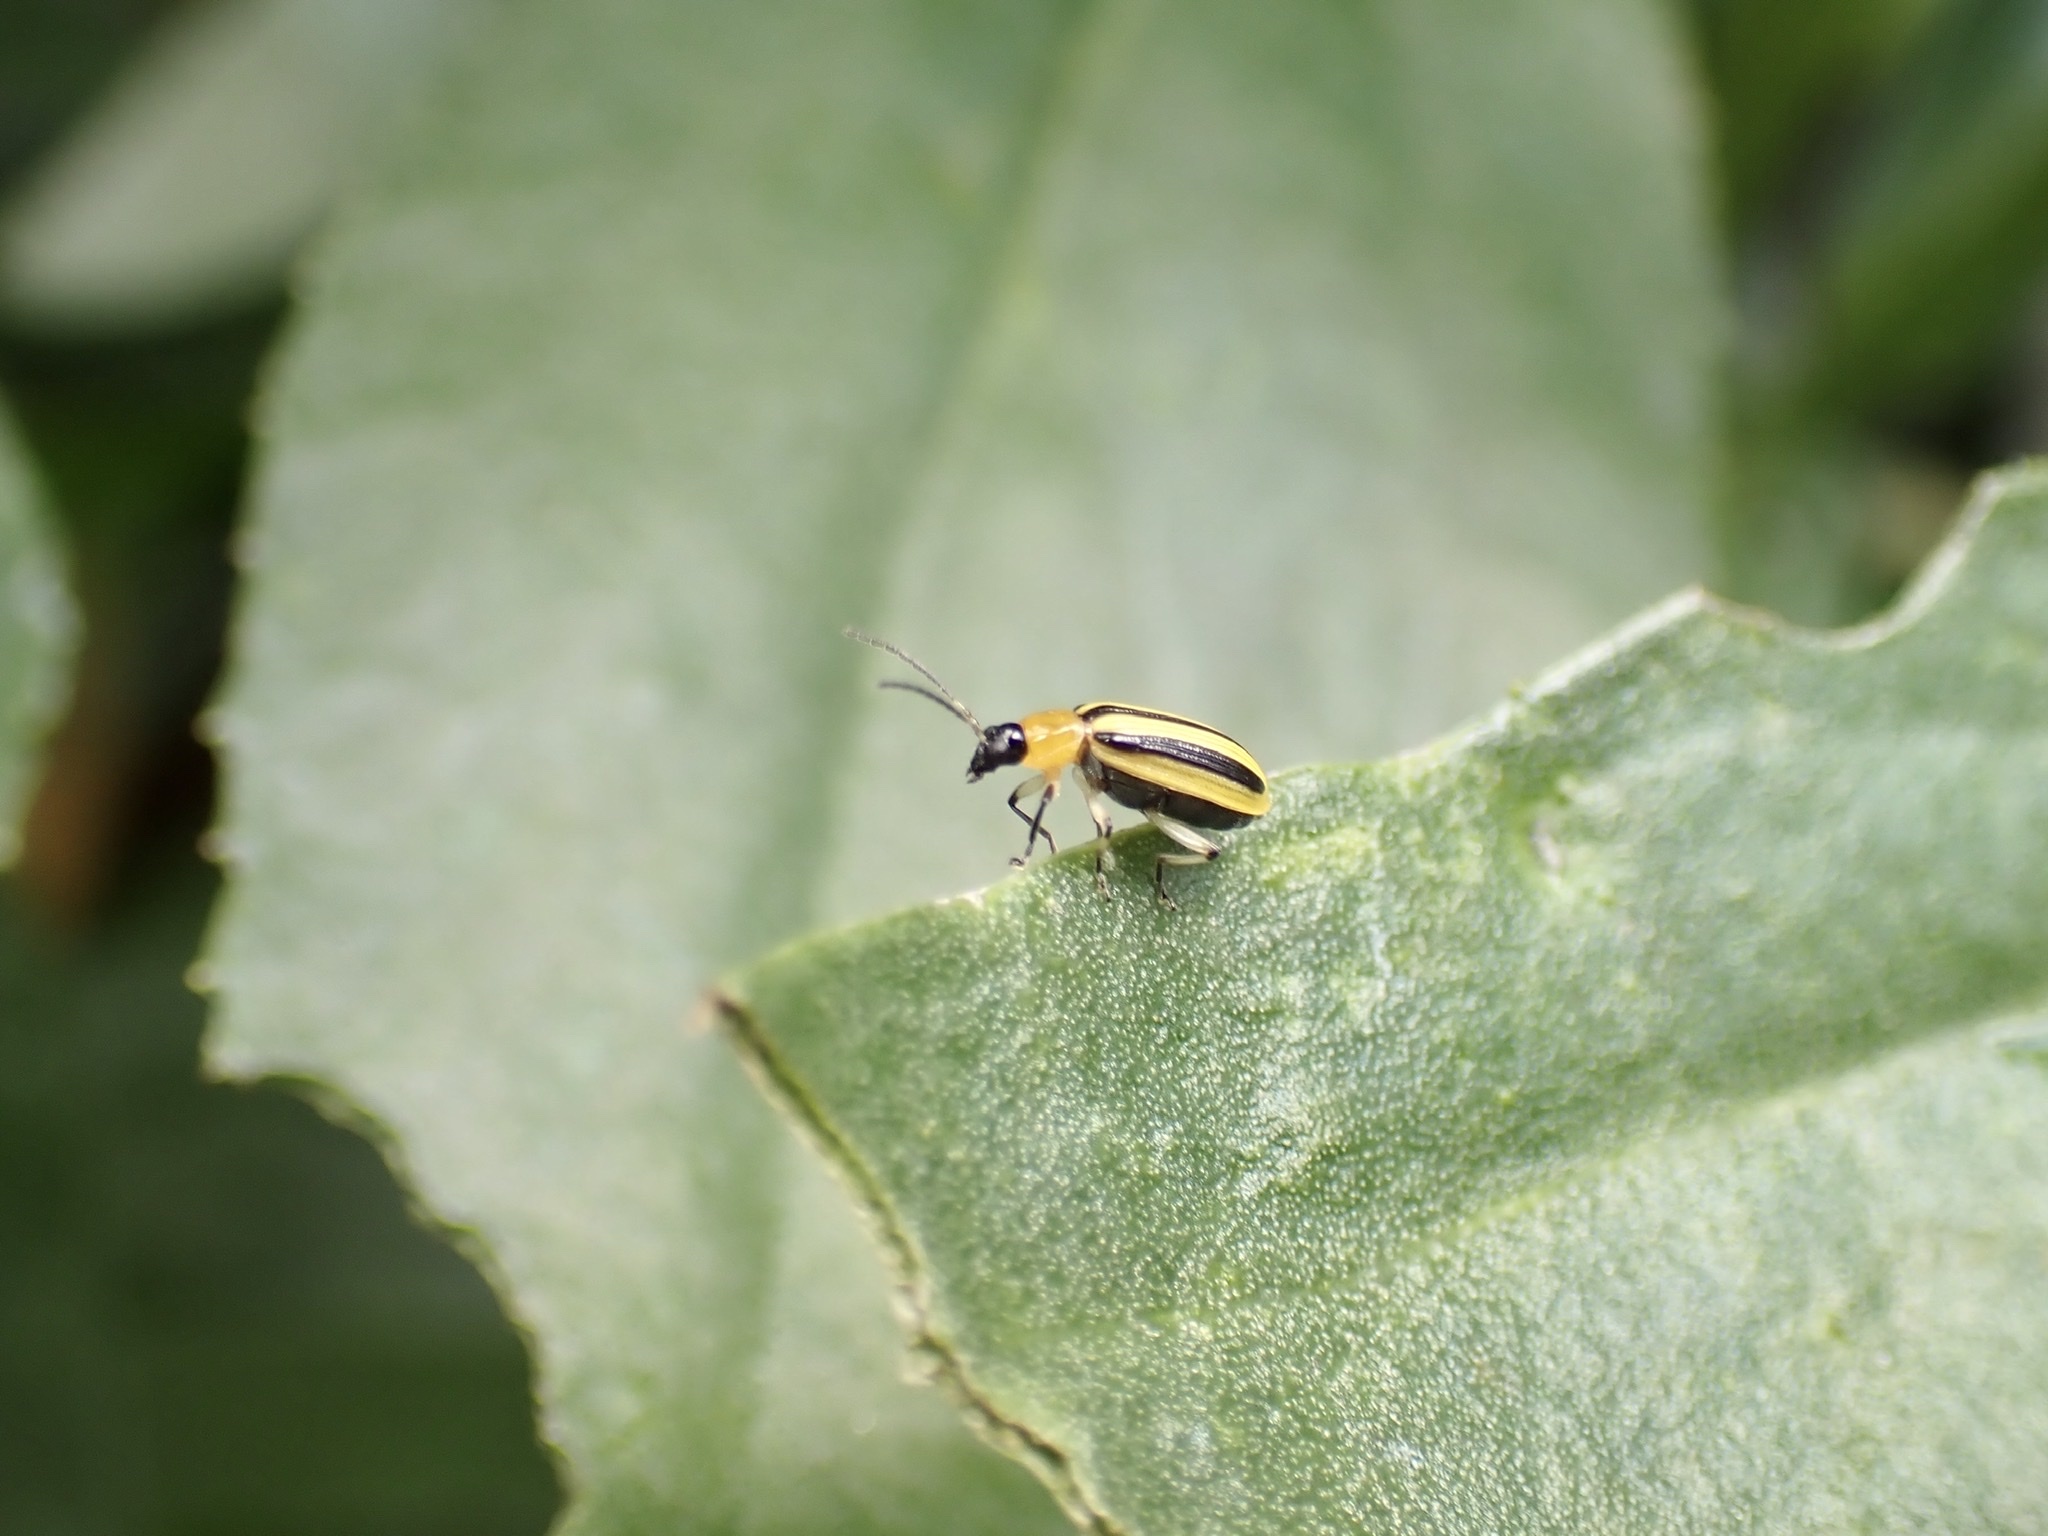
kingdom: Animalia
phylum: Arthropoda
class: Insecta
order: Coleoptera
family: Chrysomelidae
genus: Acalymma
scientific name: Acalymma vittatum
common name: Striped cucumber beetle
